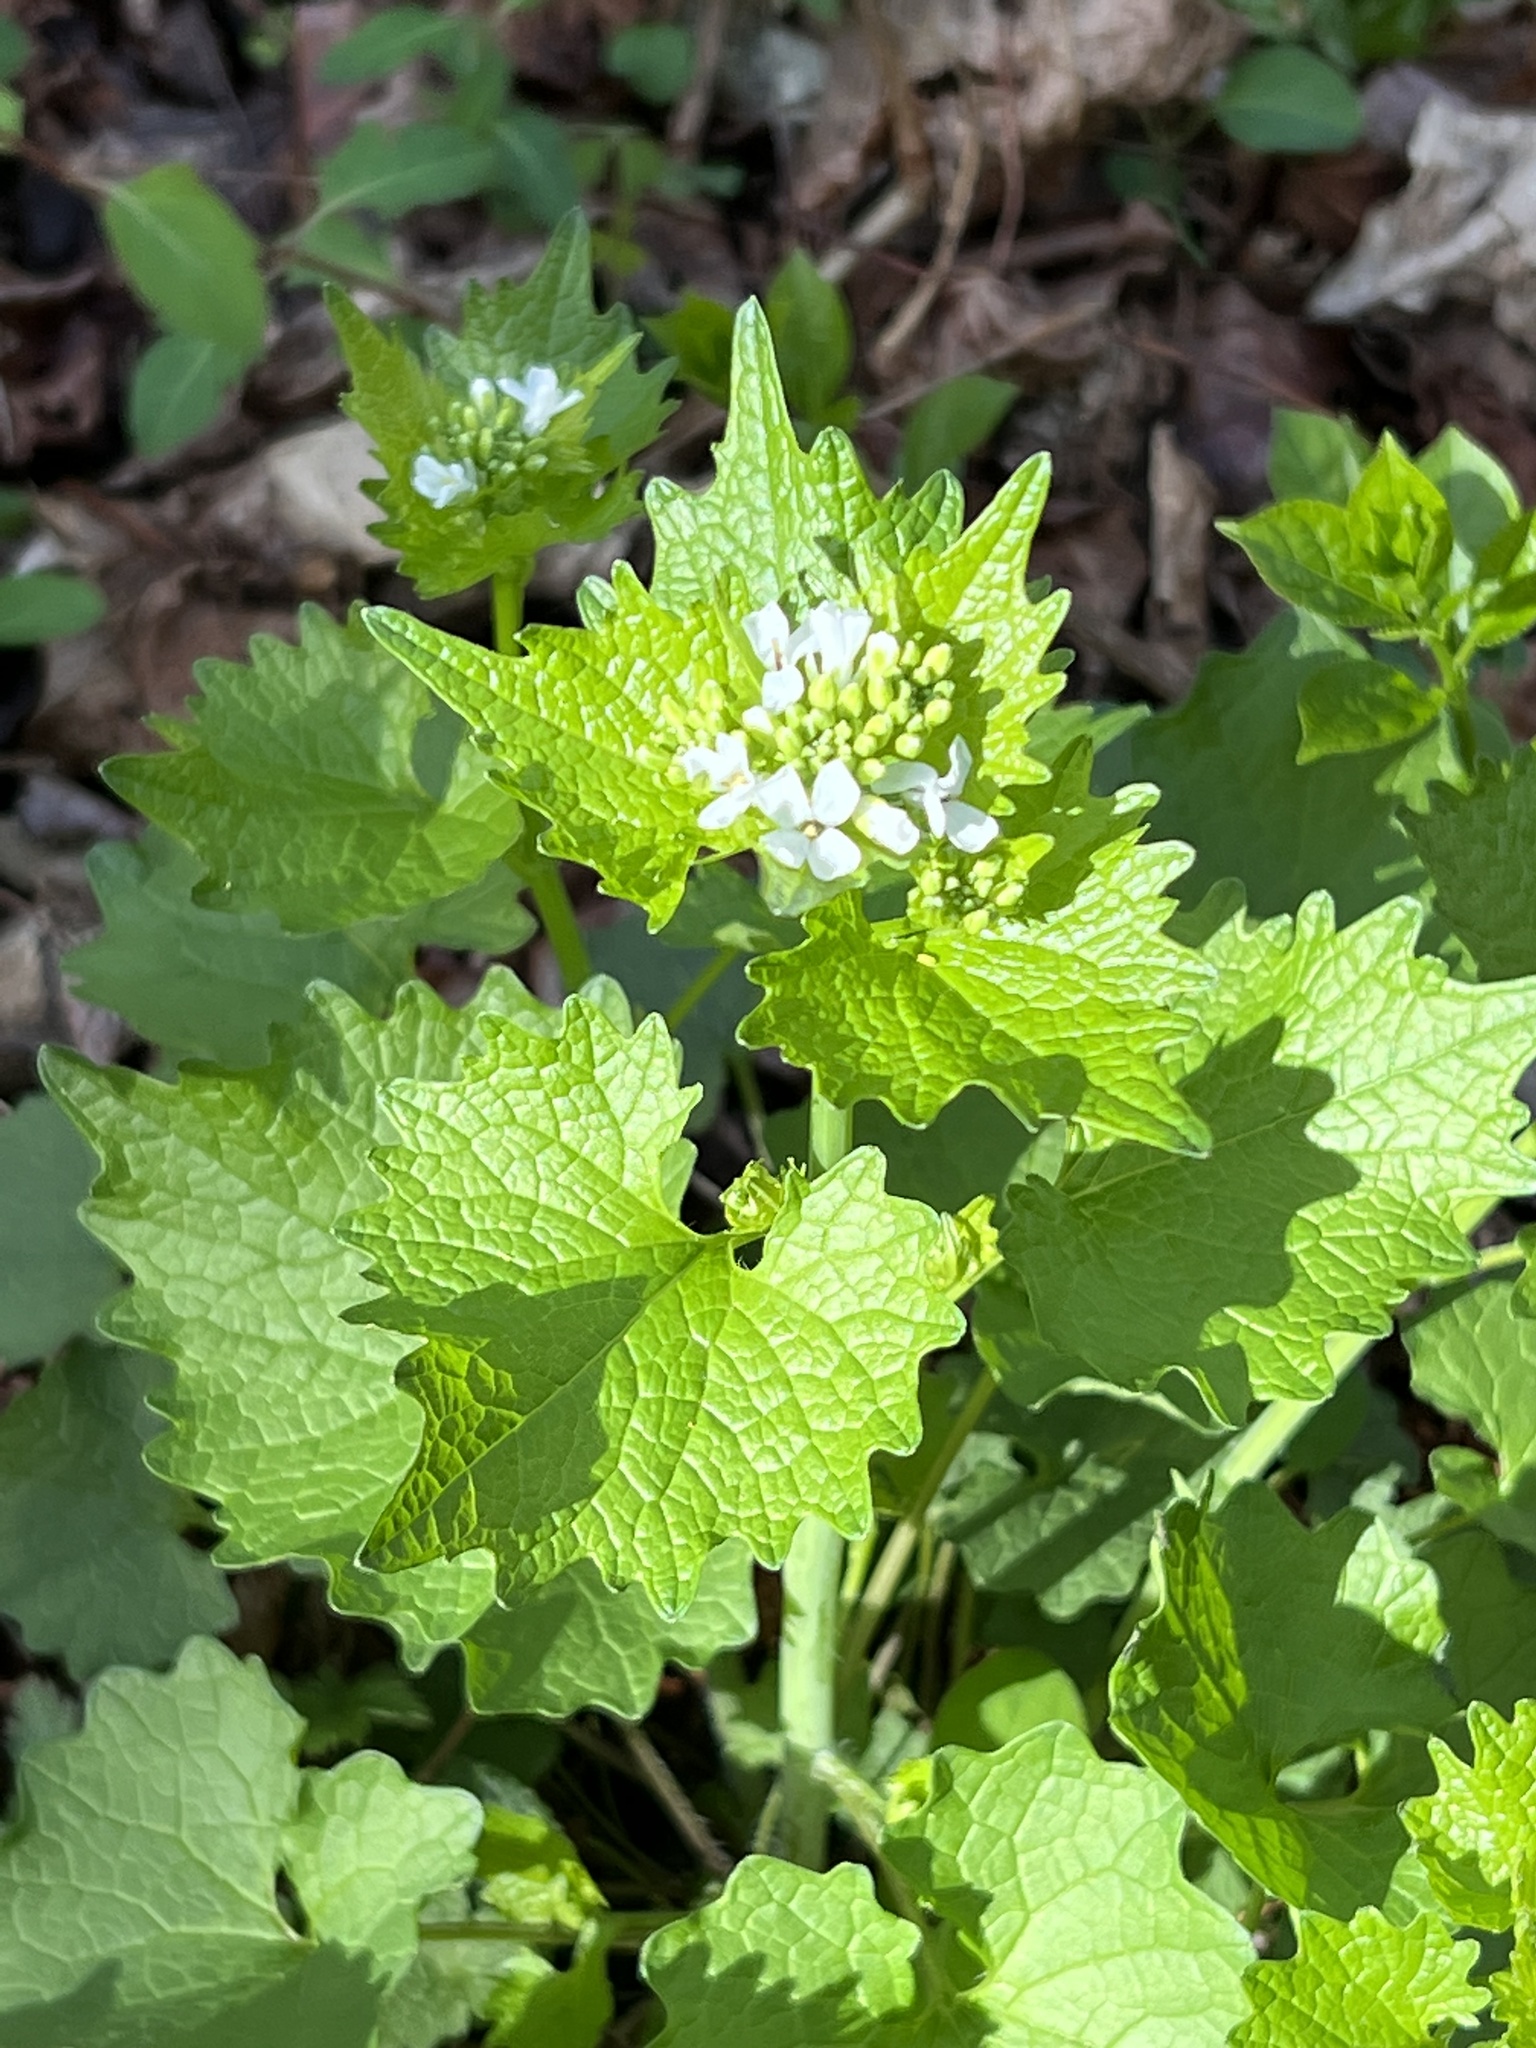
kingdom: Plantae
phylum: Tracheophyta
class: Magnoliopsida
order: Brassicales
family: Brassicaceae
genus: Alliaria
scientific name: Alliaria petiolata
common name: Garlic mustard
